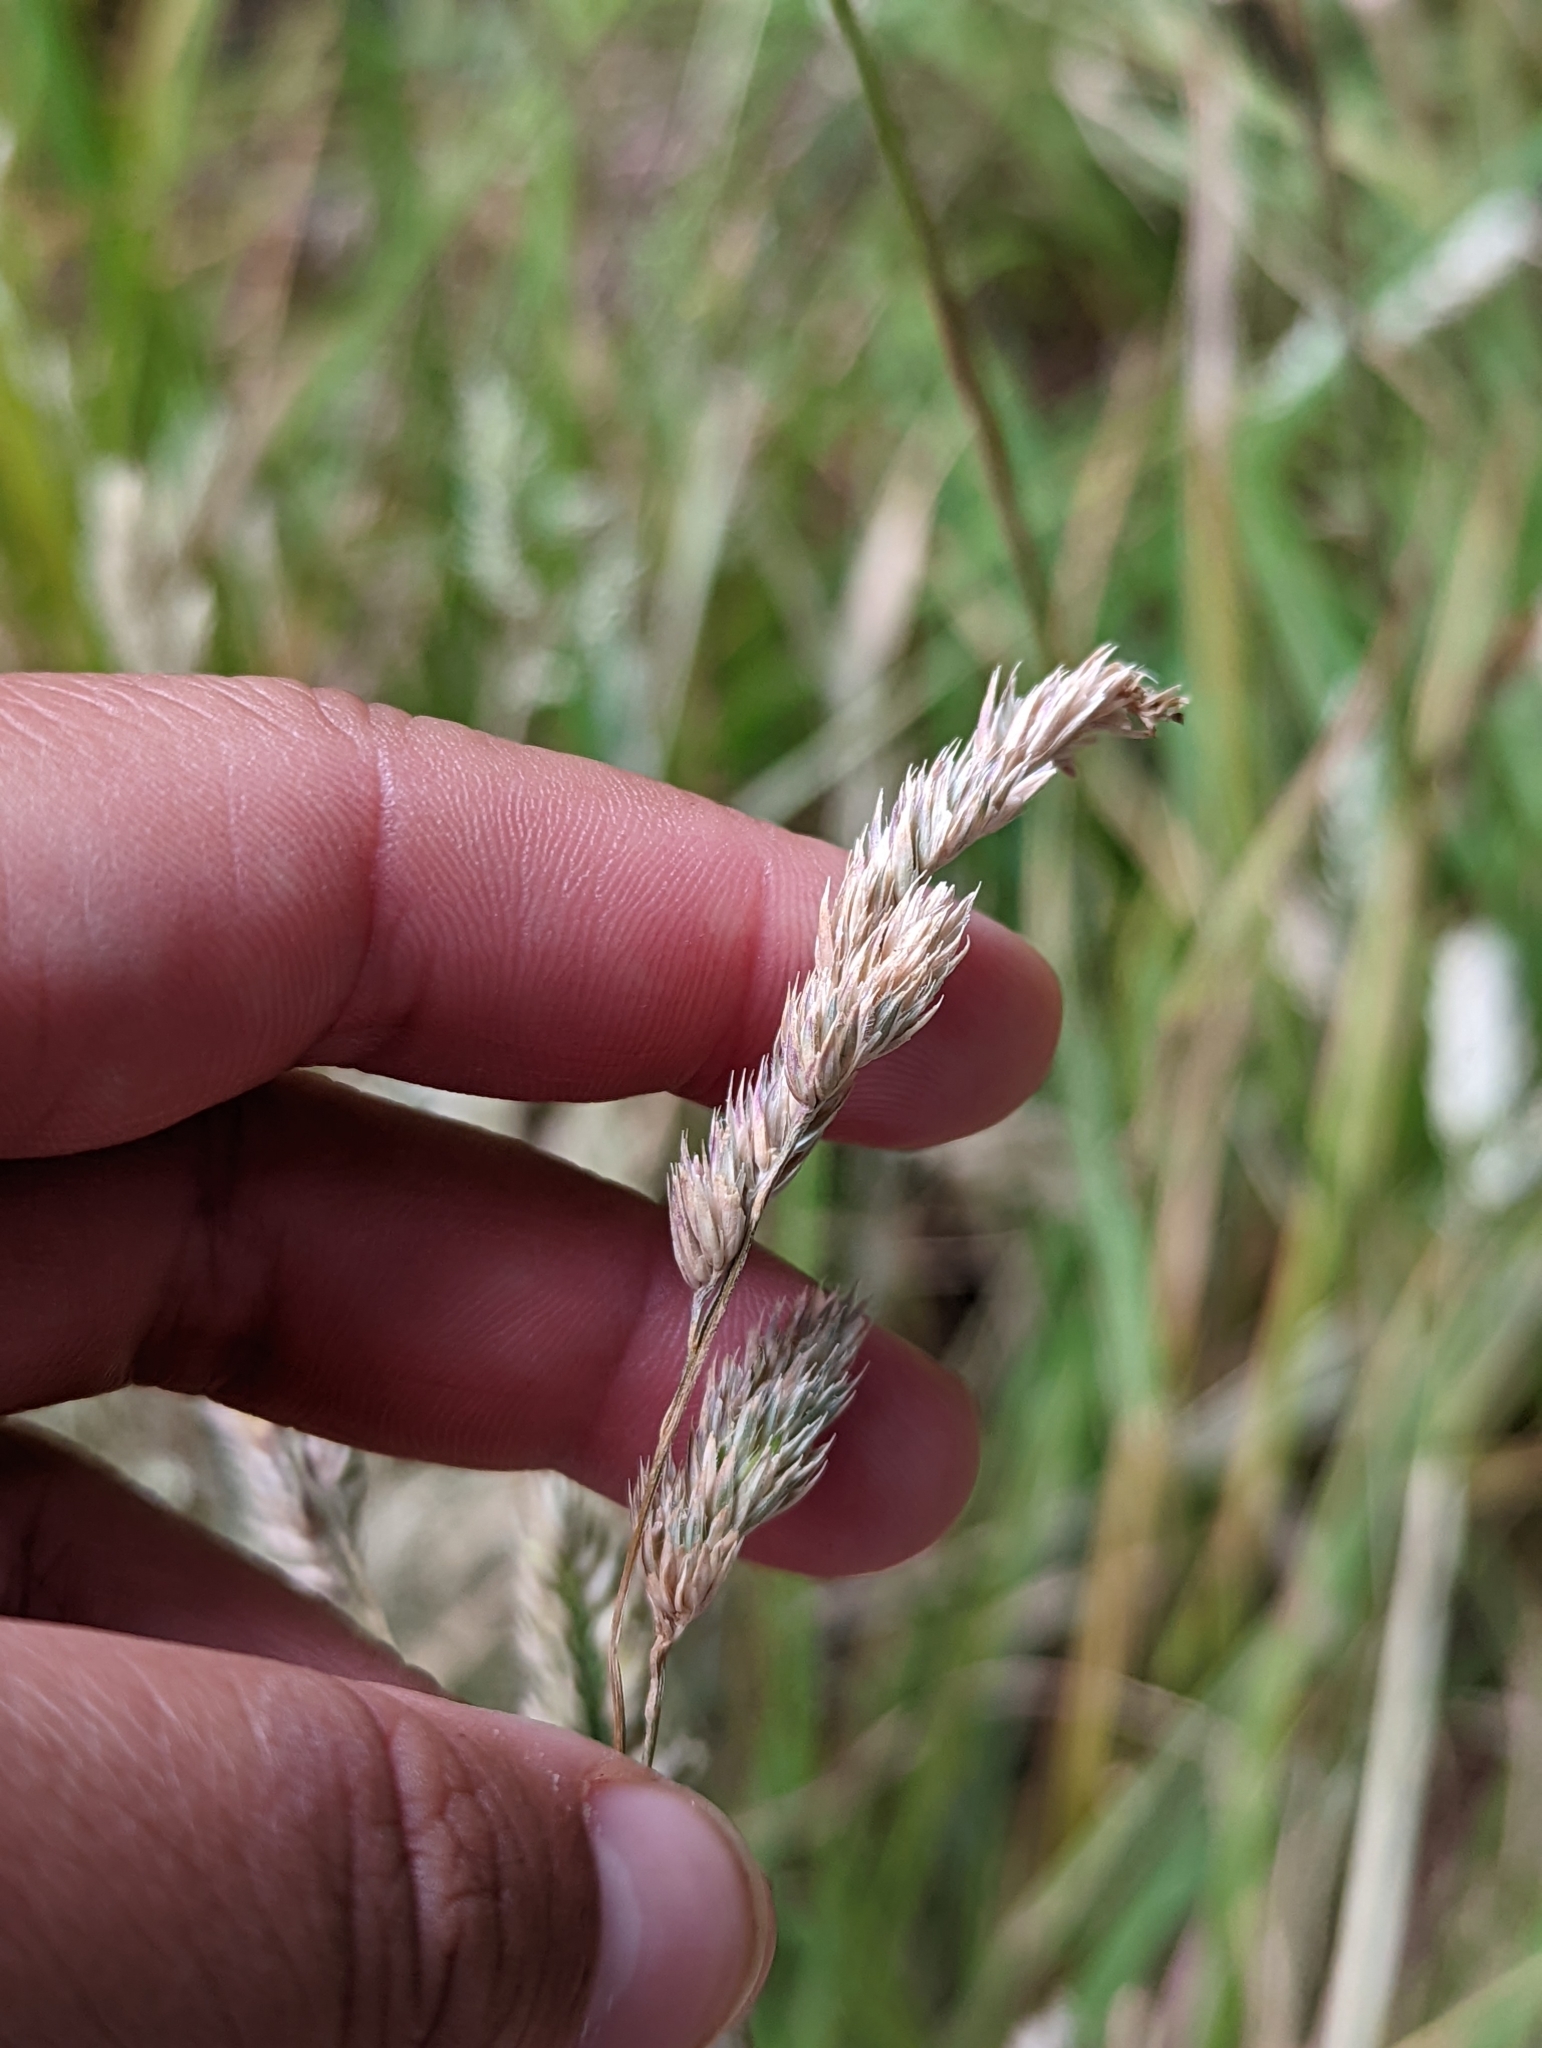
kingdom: Plantae
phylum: Tracheophyta
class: Liliopsida
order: Poales
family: Poaceae
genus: Dactylis
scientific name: Dactylis glomerata
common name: Orchardgrass
